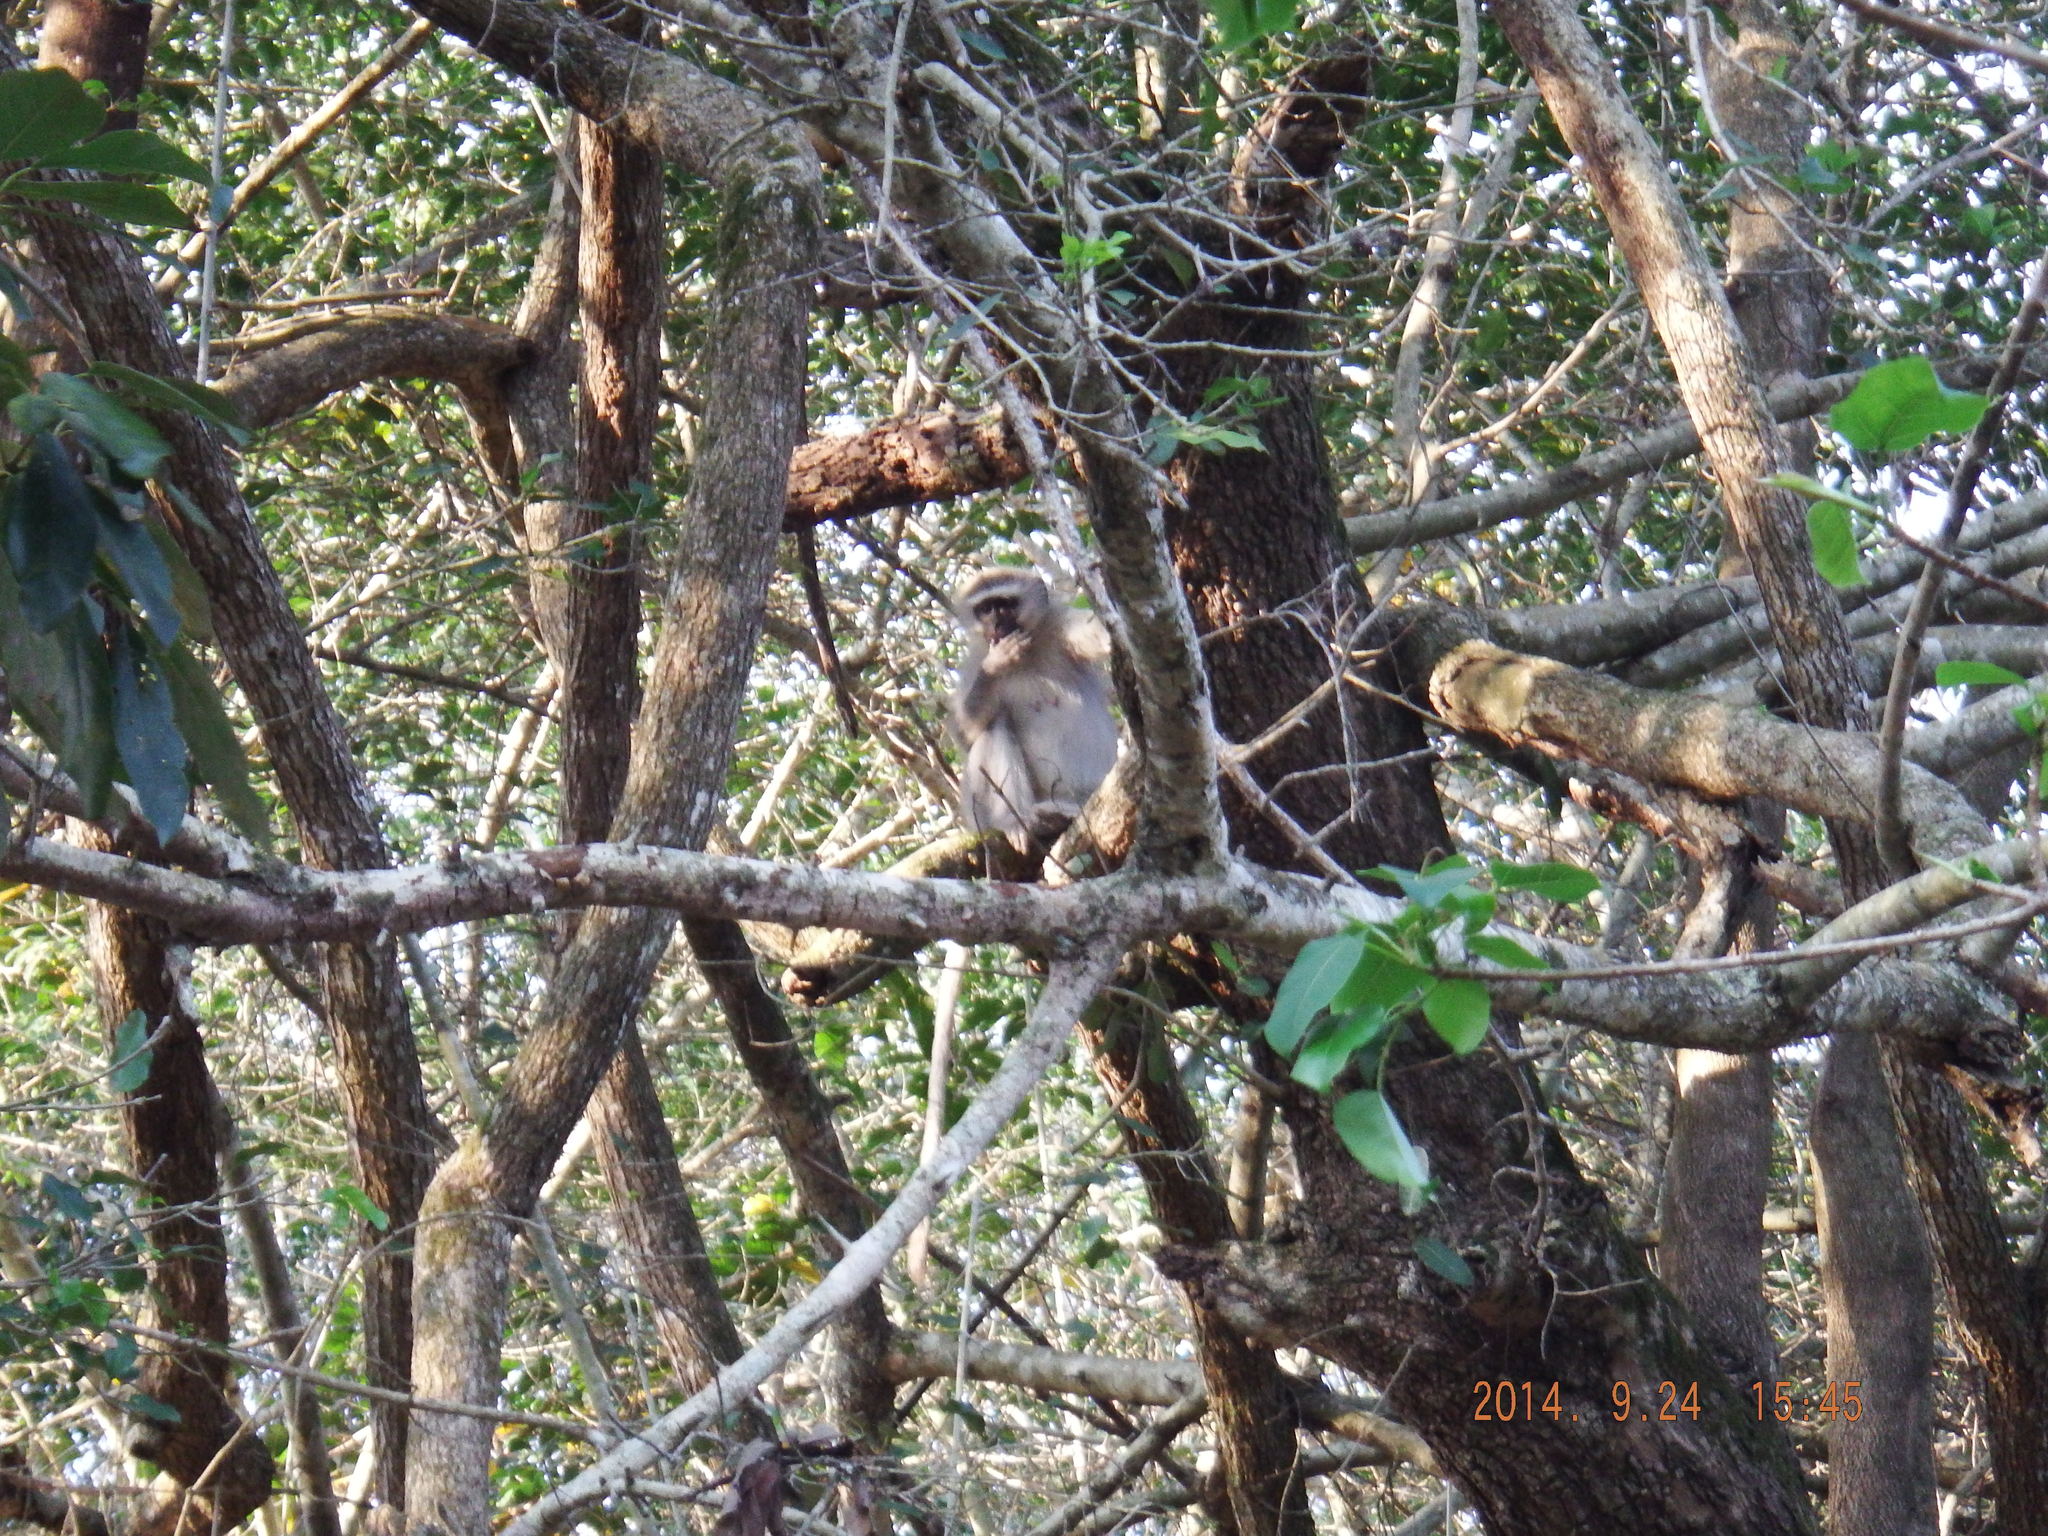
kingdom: Animalia
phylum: Chordata
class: Mammalia
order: Primates
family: Cercopithecidae
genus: Chlorocebus
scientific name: Chlorocebus pygerythrus
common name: Vervet monkey
